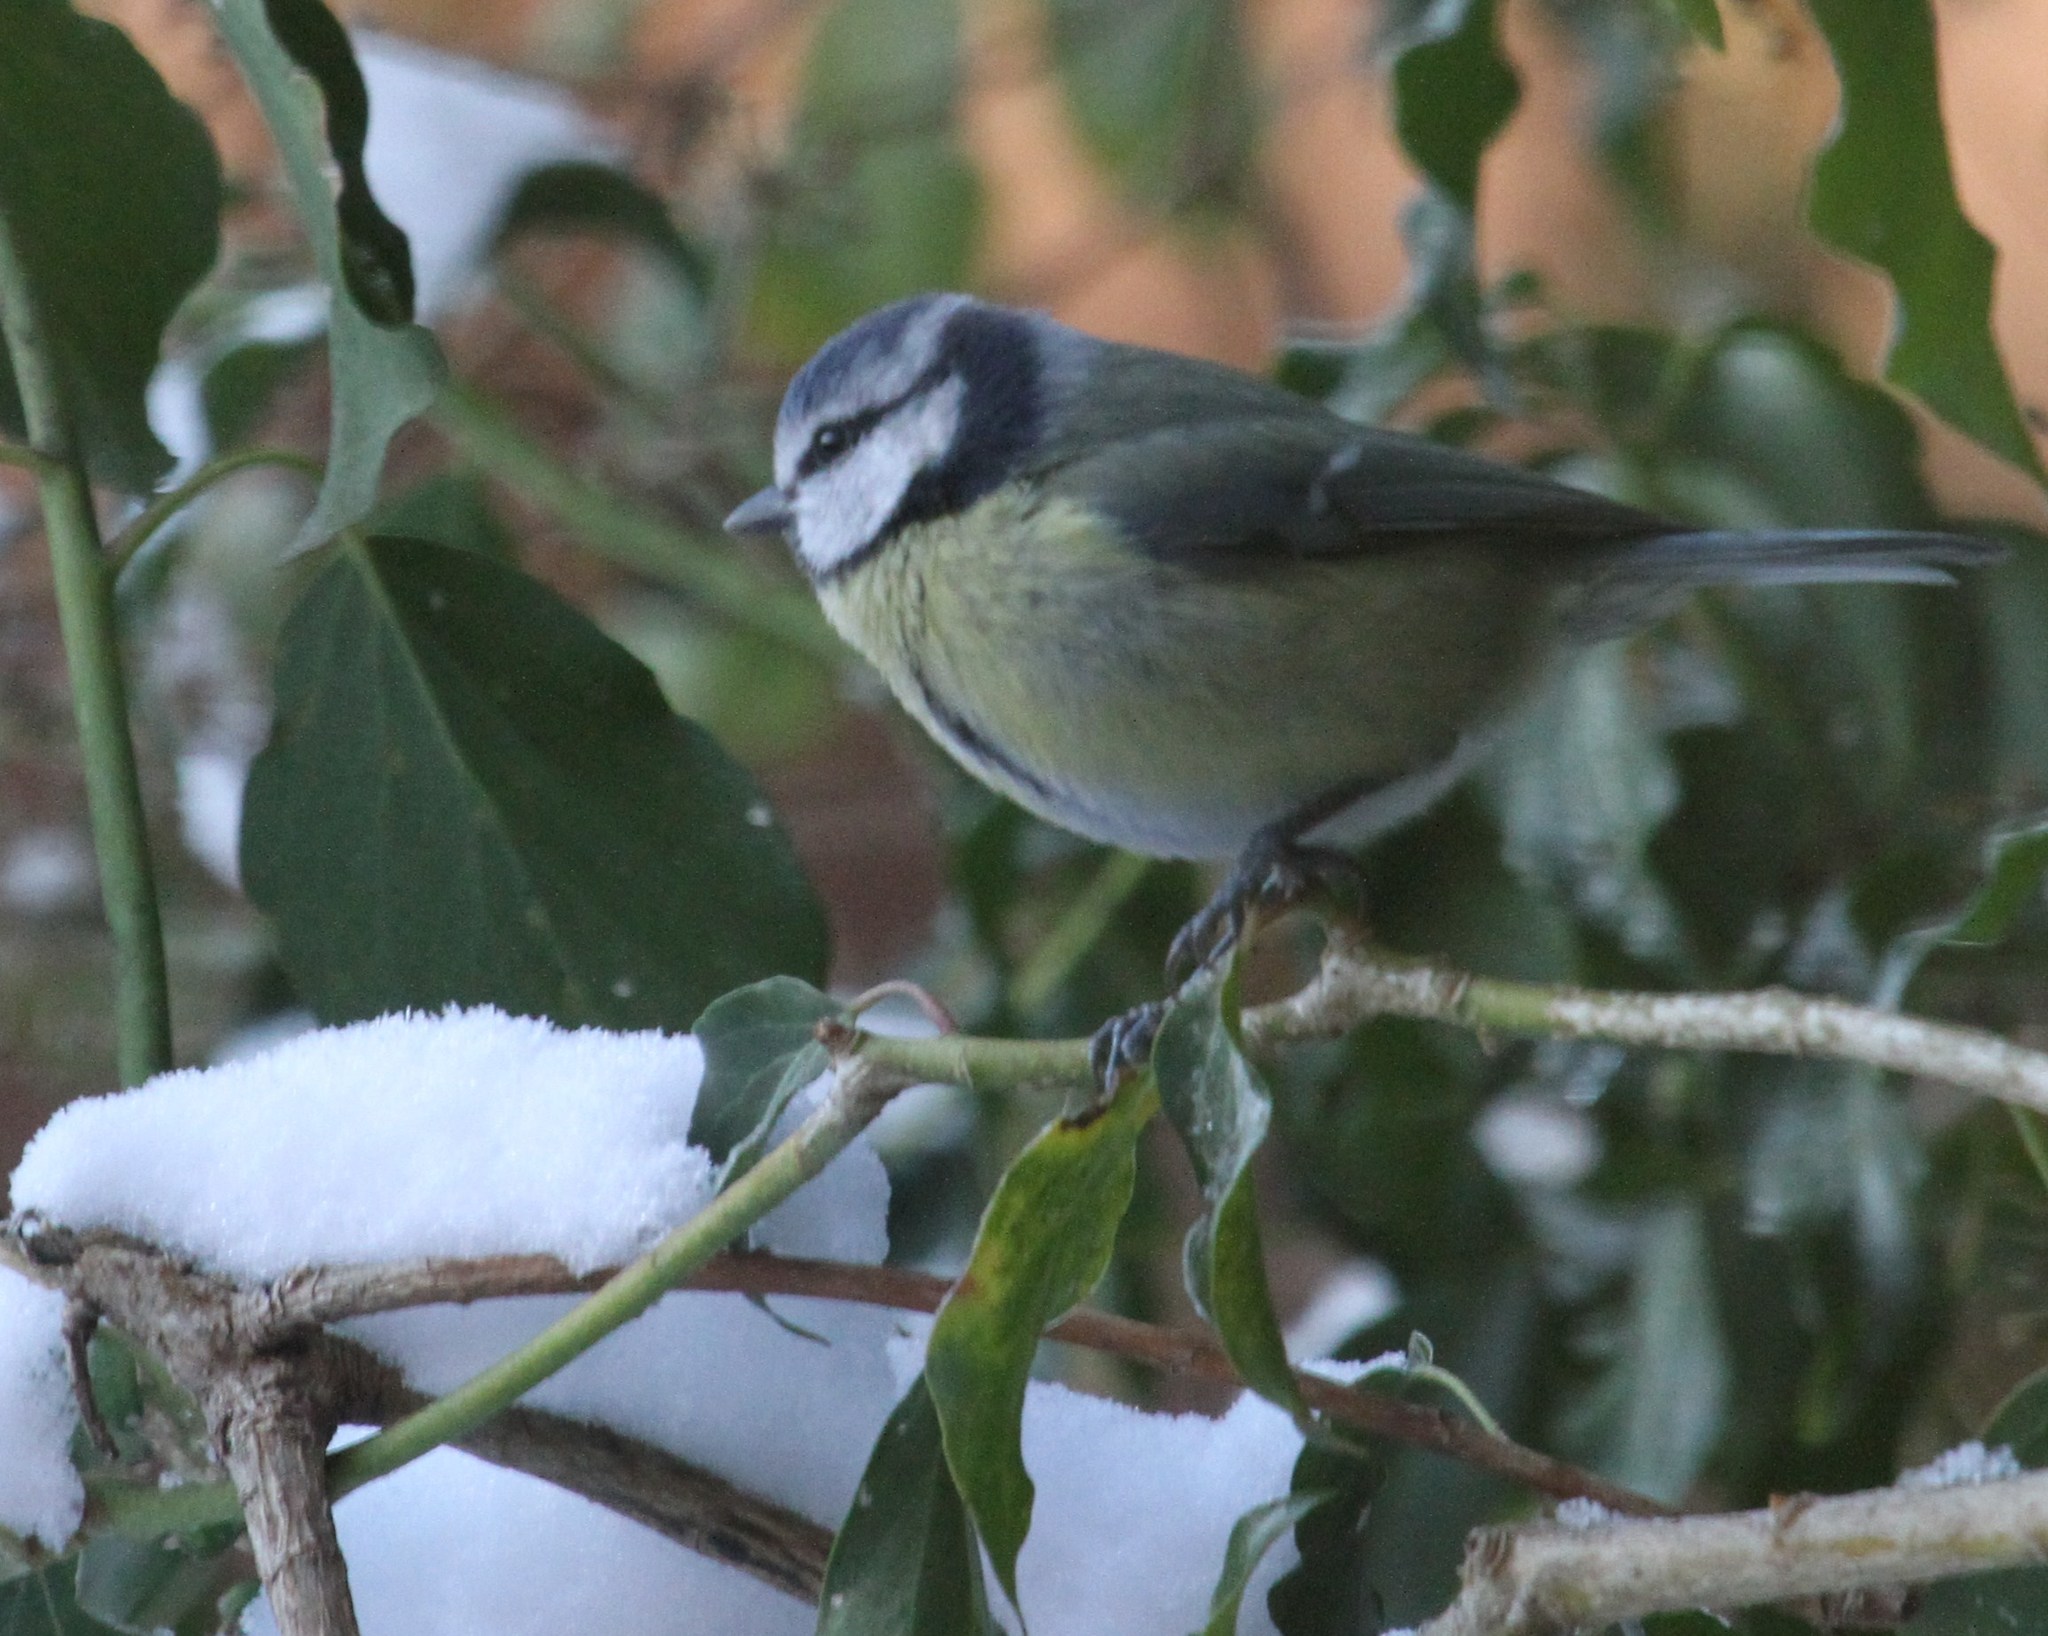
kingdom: Animalia
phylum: Chordata
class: Aves
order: Passeriformes
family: Paridae
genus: Cyanistes
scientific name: Cyanistes caeruleus
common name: Eurasian blue tit
